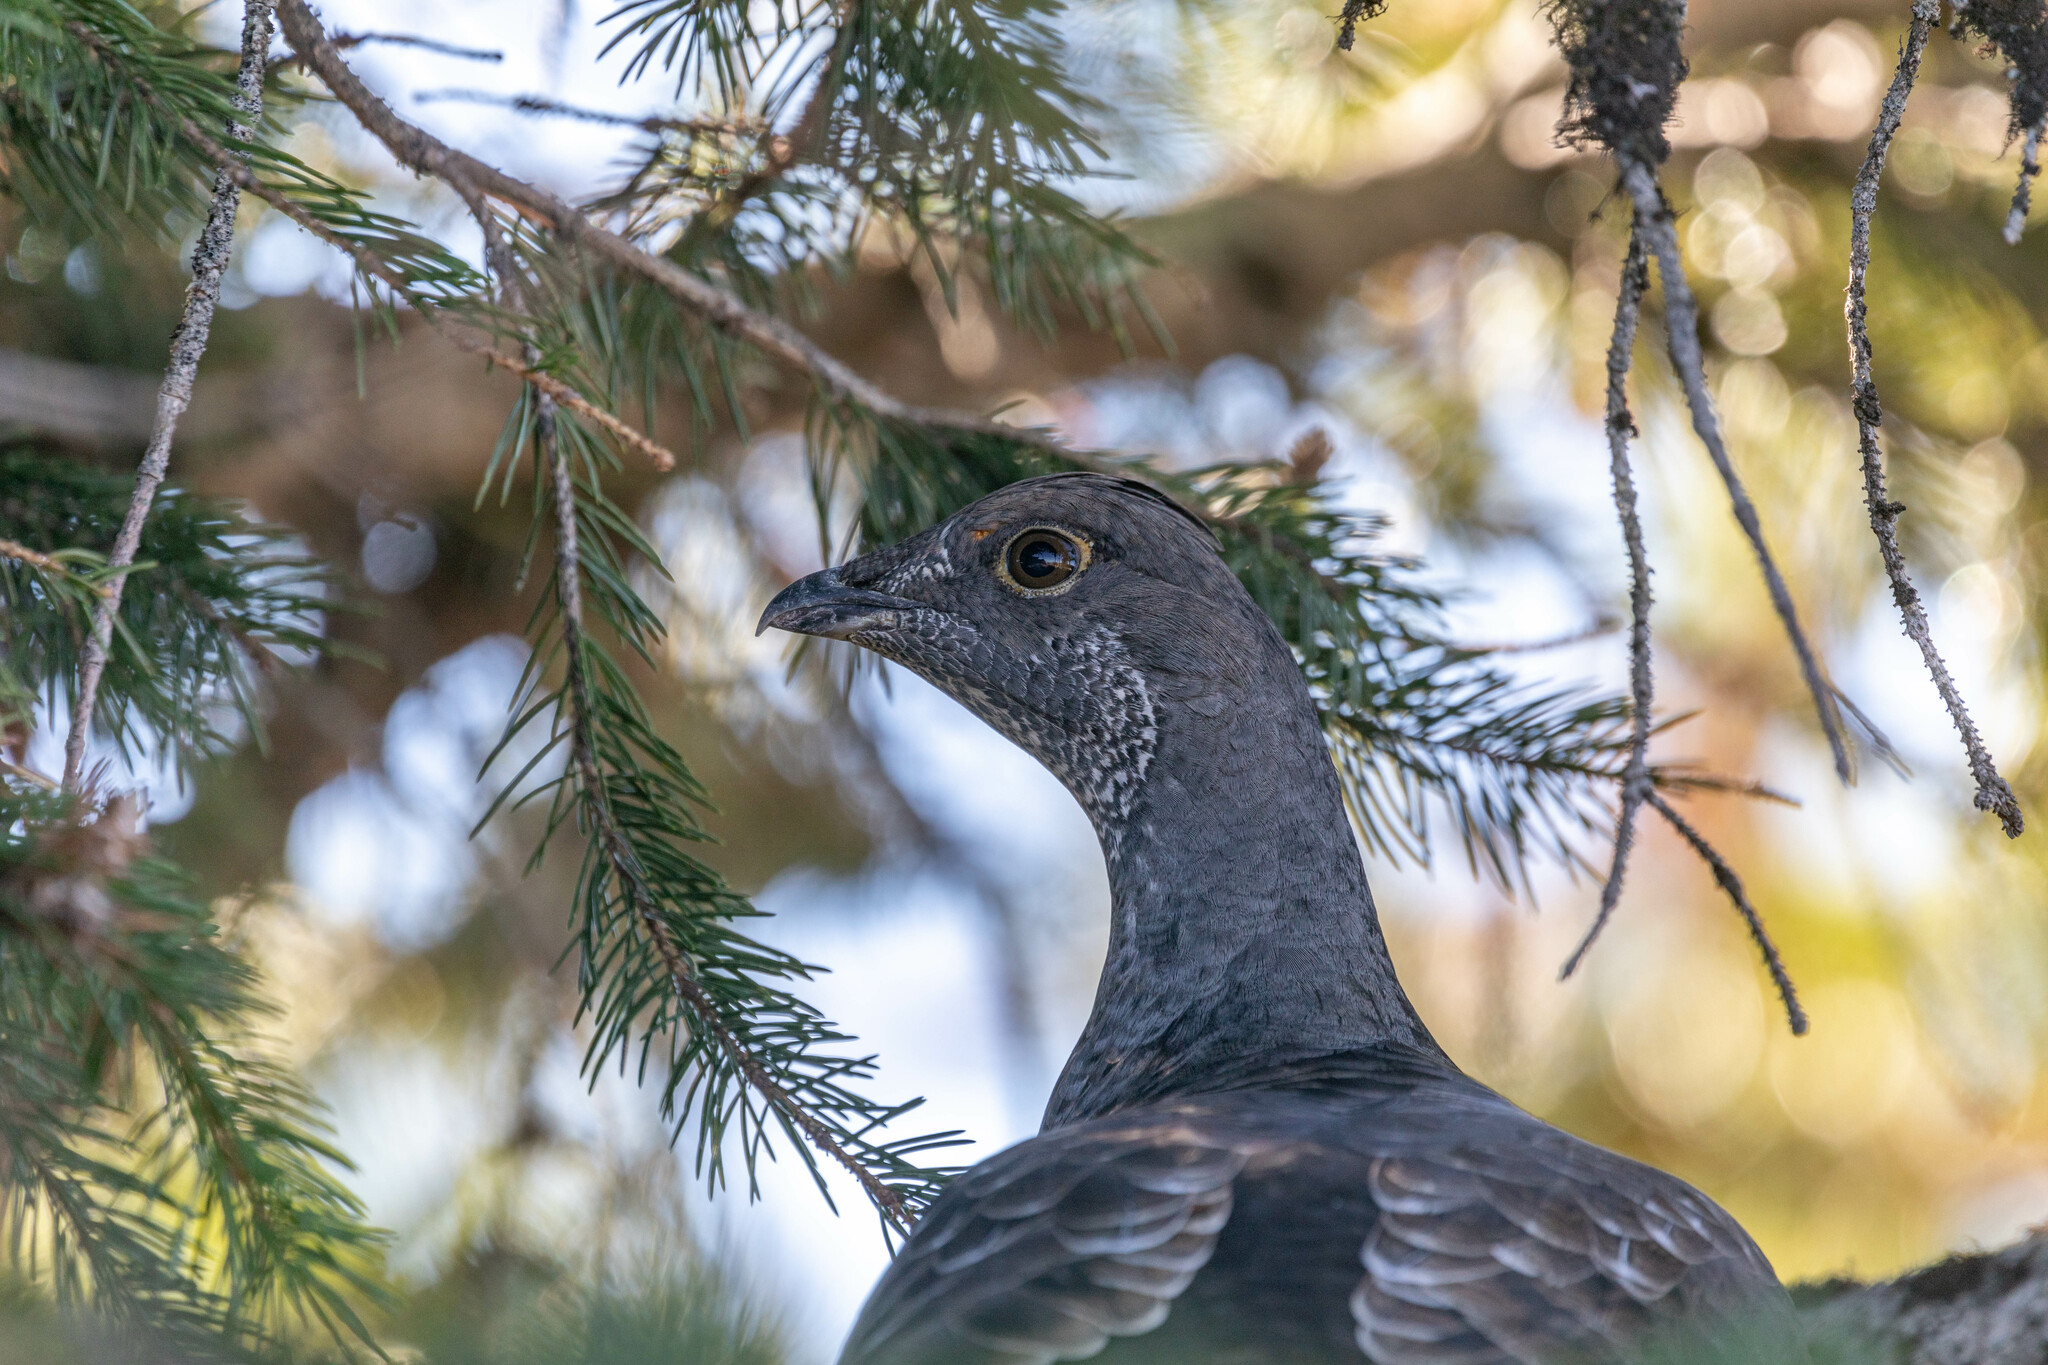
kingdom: Animalia
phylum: Chordata
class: Aves
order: Galliformes
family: Phasianidae
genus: Dendragapus
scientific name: Dendragapus obscurus
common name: Dusky grouse
